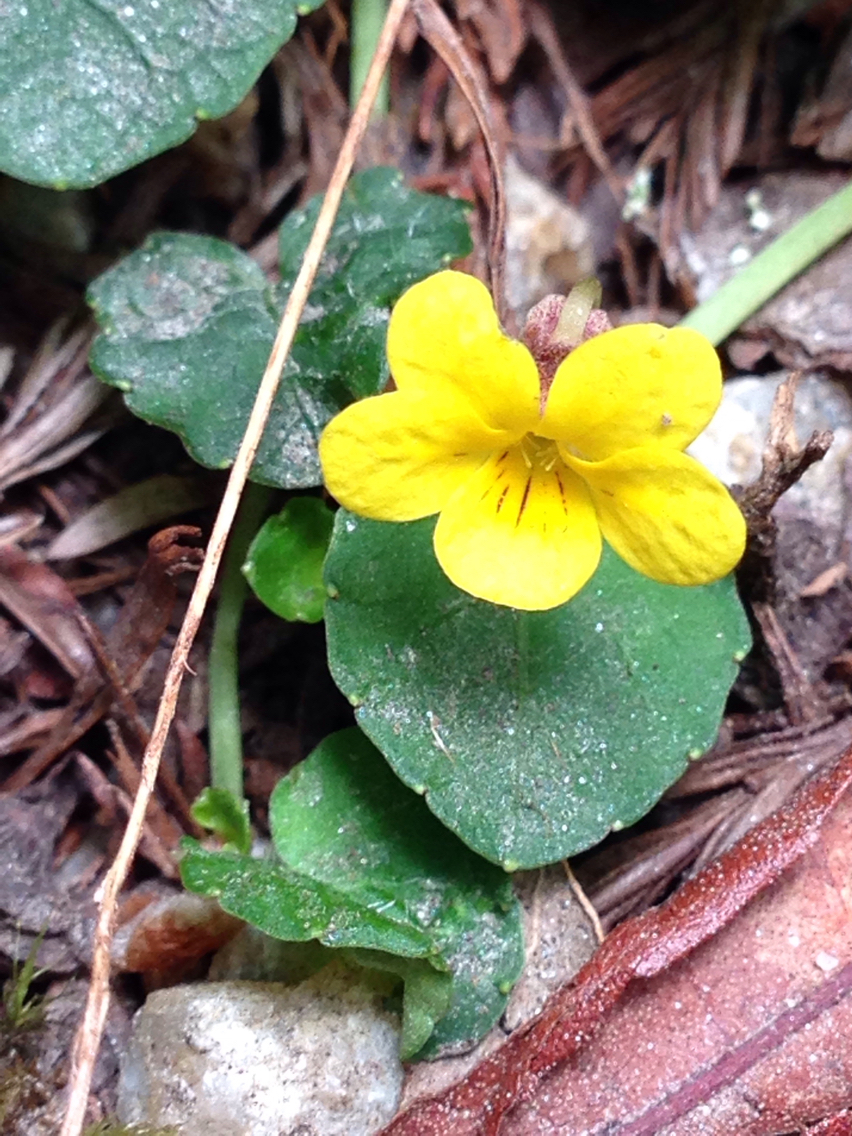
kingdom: Plantae
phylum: Tracheophyta
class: Magnoliopsida
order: Malpighiales
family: Violaceae
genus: Viola
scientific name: Viola sempervirens
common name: Evergreen violet
